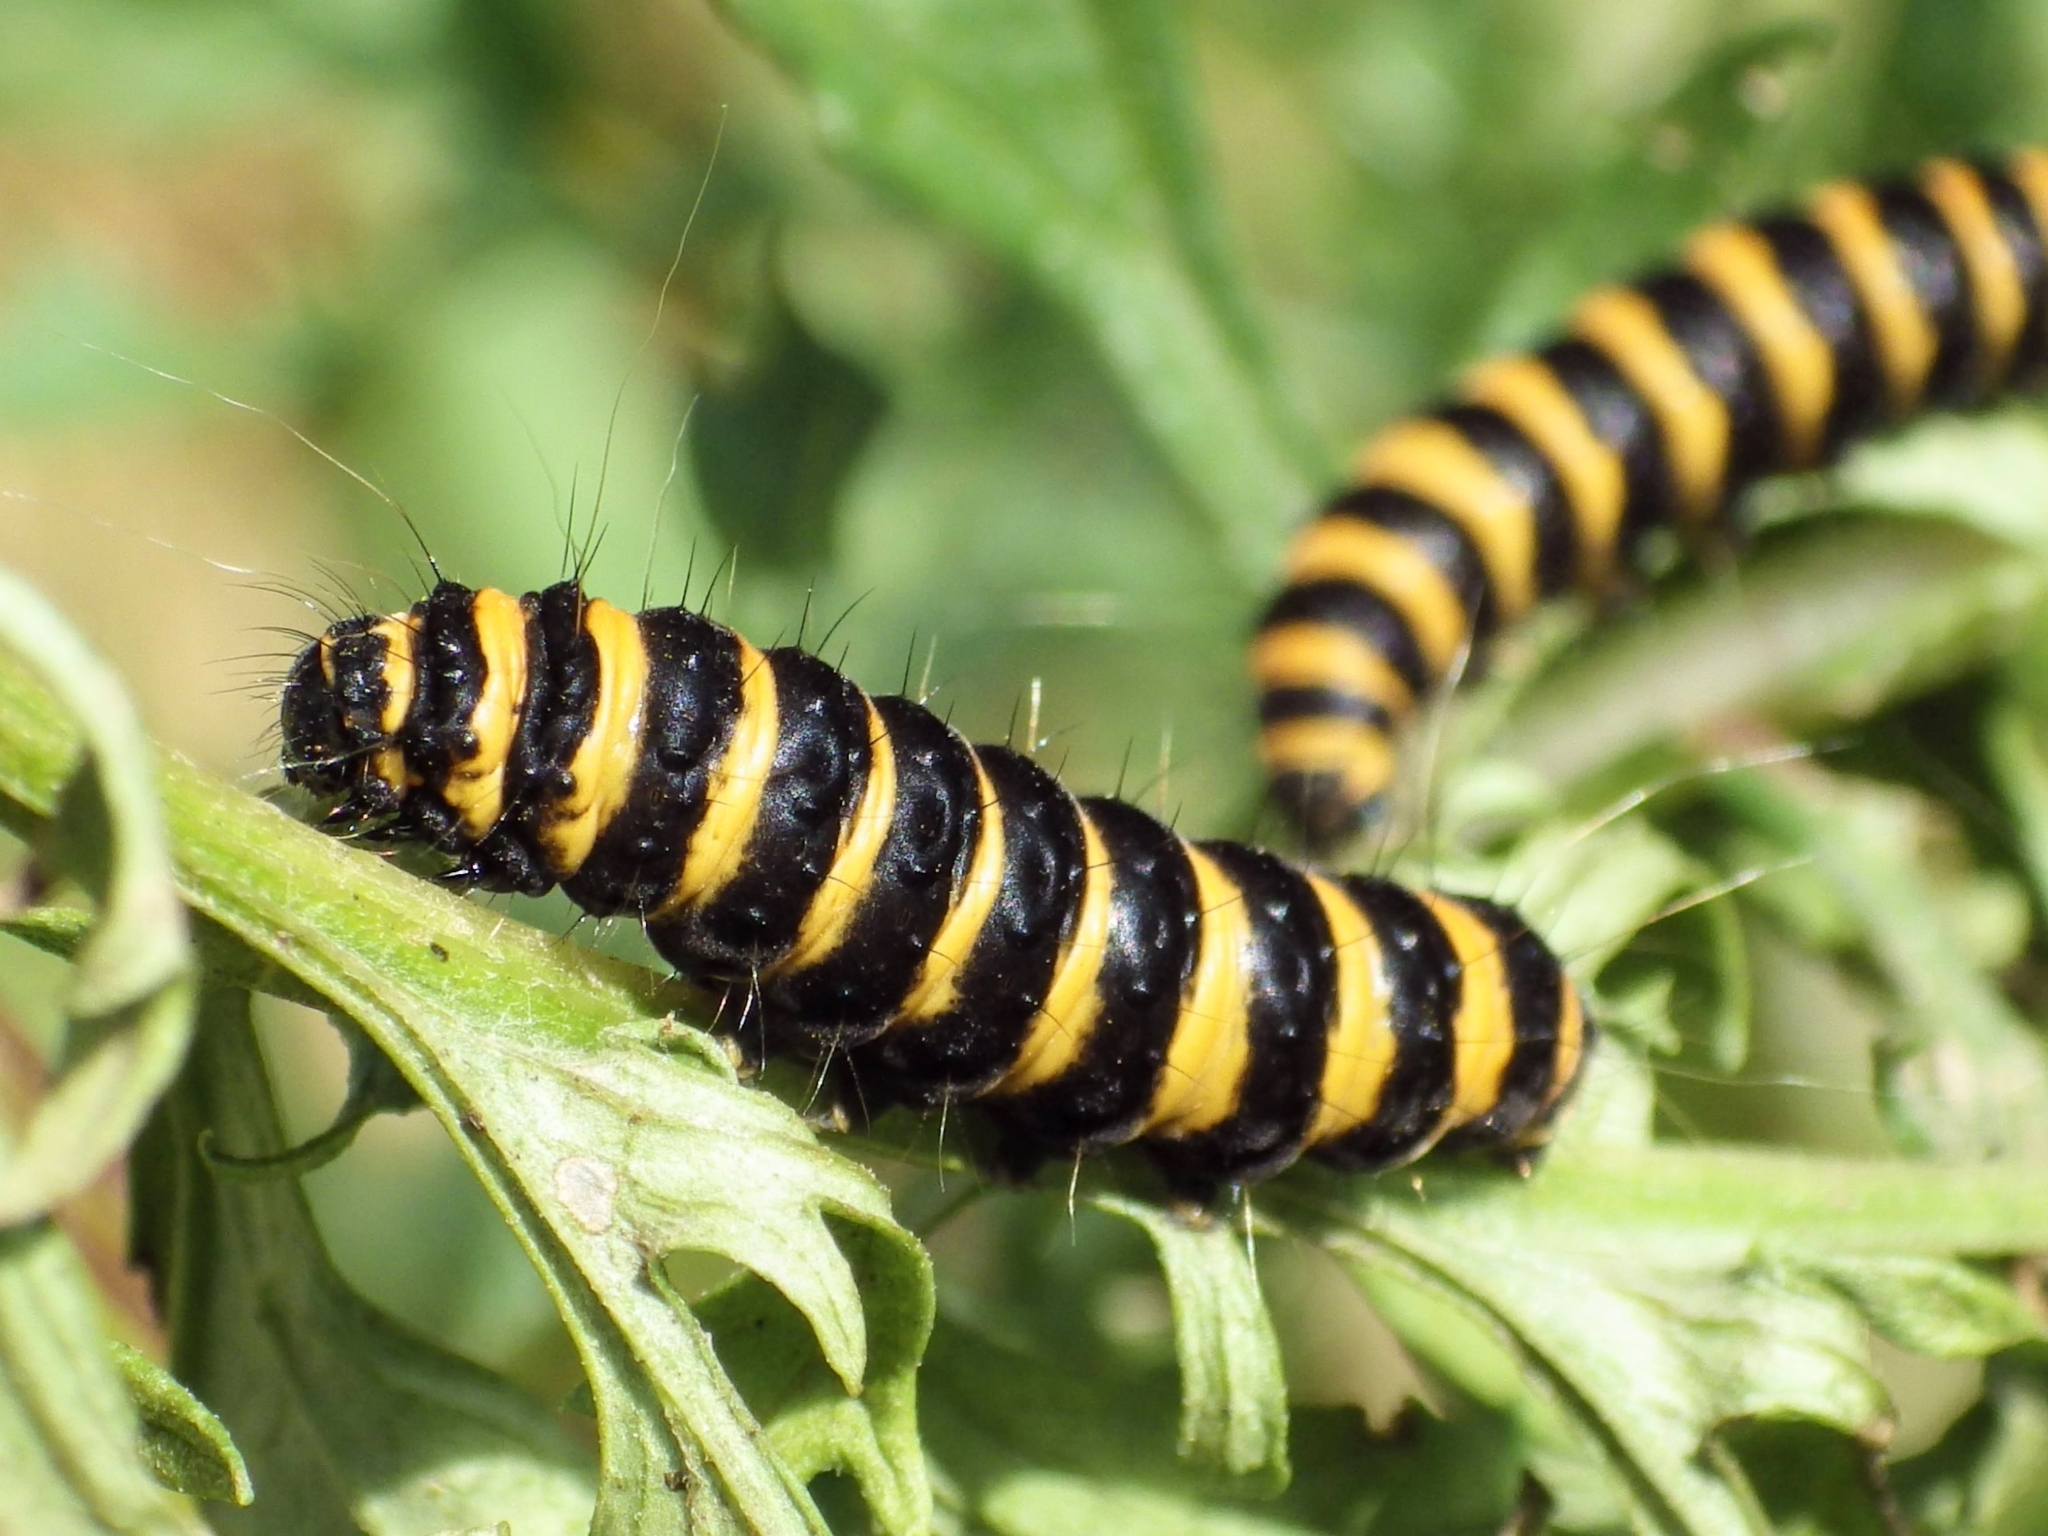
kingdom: Animalia
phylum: Arthropoda
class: Insecta
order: Lepidoptera
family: Erebidae
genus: Tyria
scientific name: Tyria jacobaeae
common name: Cinnabar
